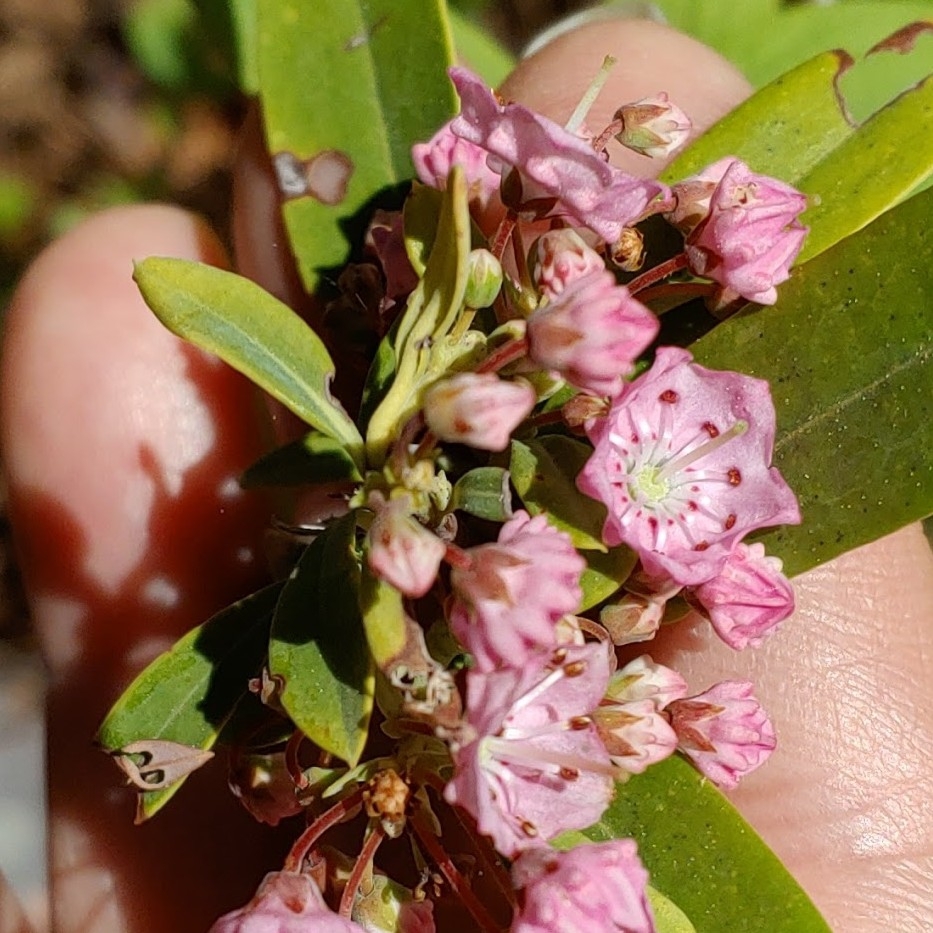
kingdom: Plantae
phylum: Tracheophyta
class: Magnoliopsida
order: Ericales
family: Ericaceae
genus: Kalmia
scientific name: Kalmia angustifolia
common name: Sheep-laurel
